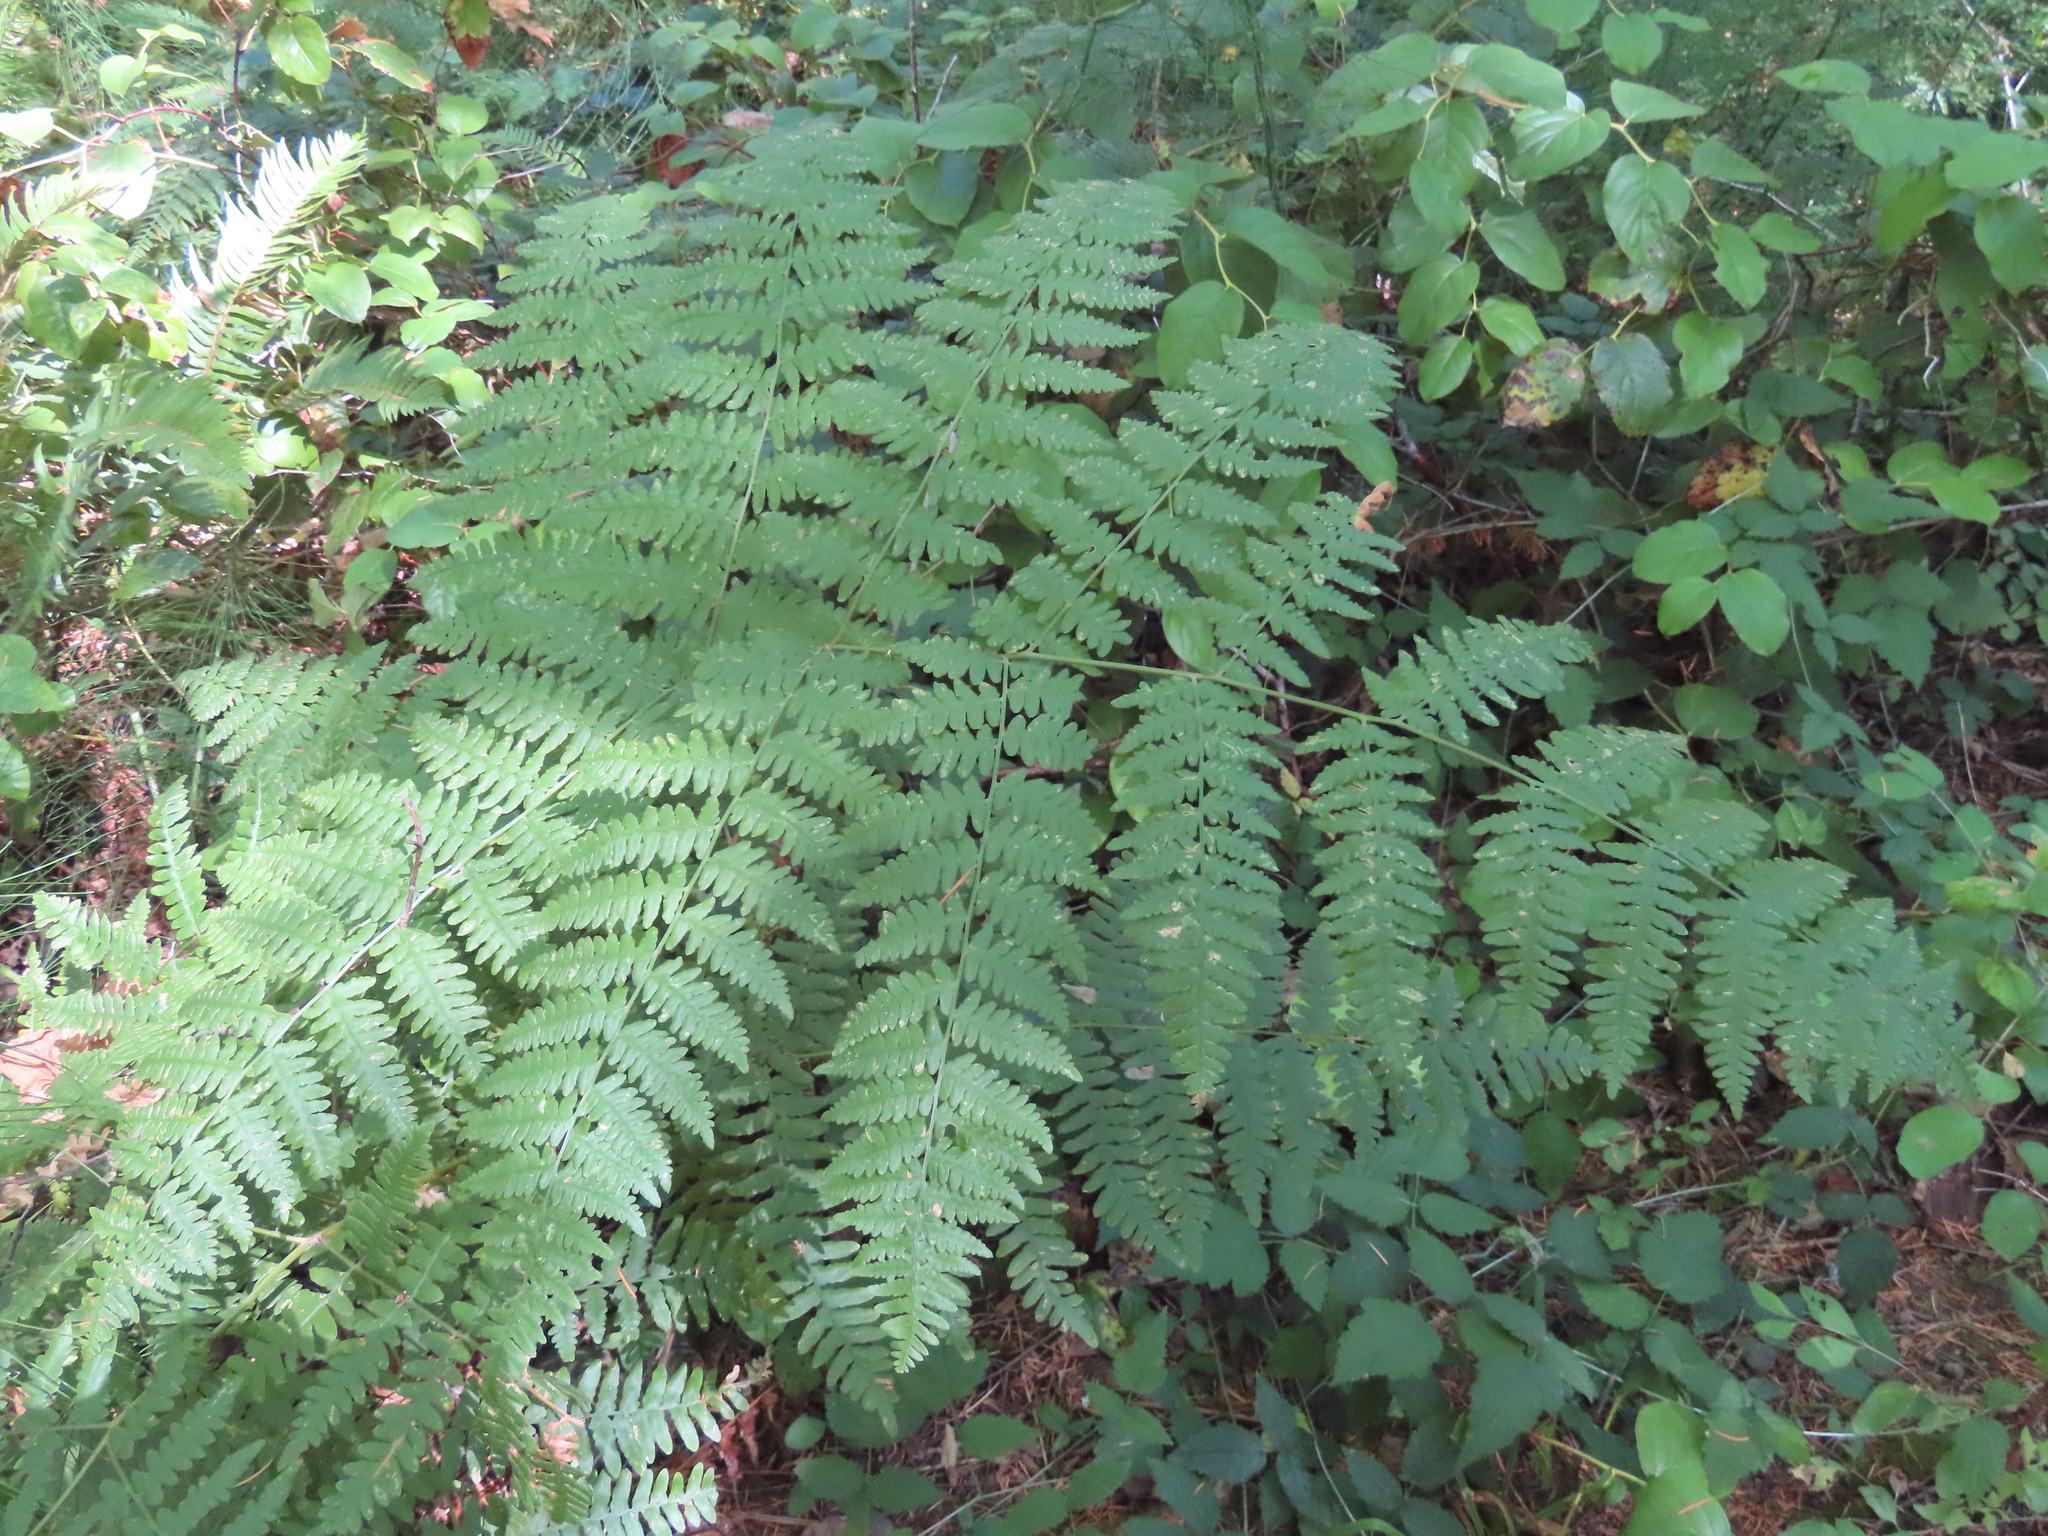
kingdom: Plantae
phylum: Tracheophyta
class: Polypodiopsida
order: Polypodiales
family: Dennstaedtiaceae
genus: Pteridium
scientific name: Pteridium aquilinum
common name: Bracken
